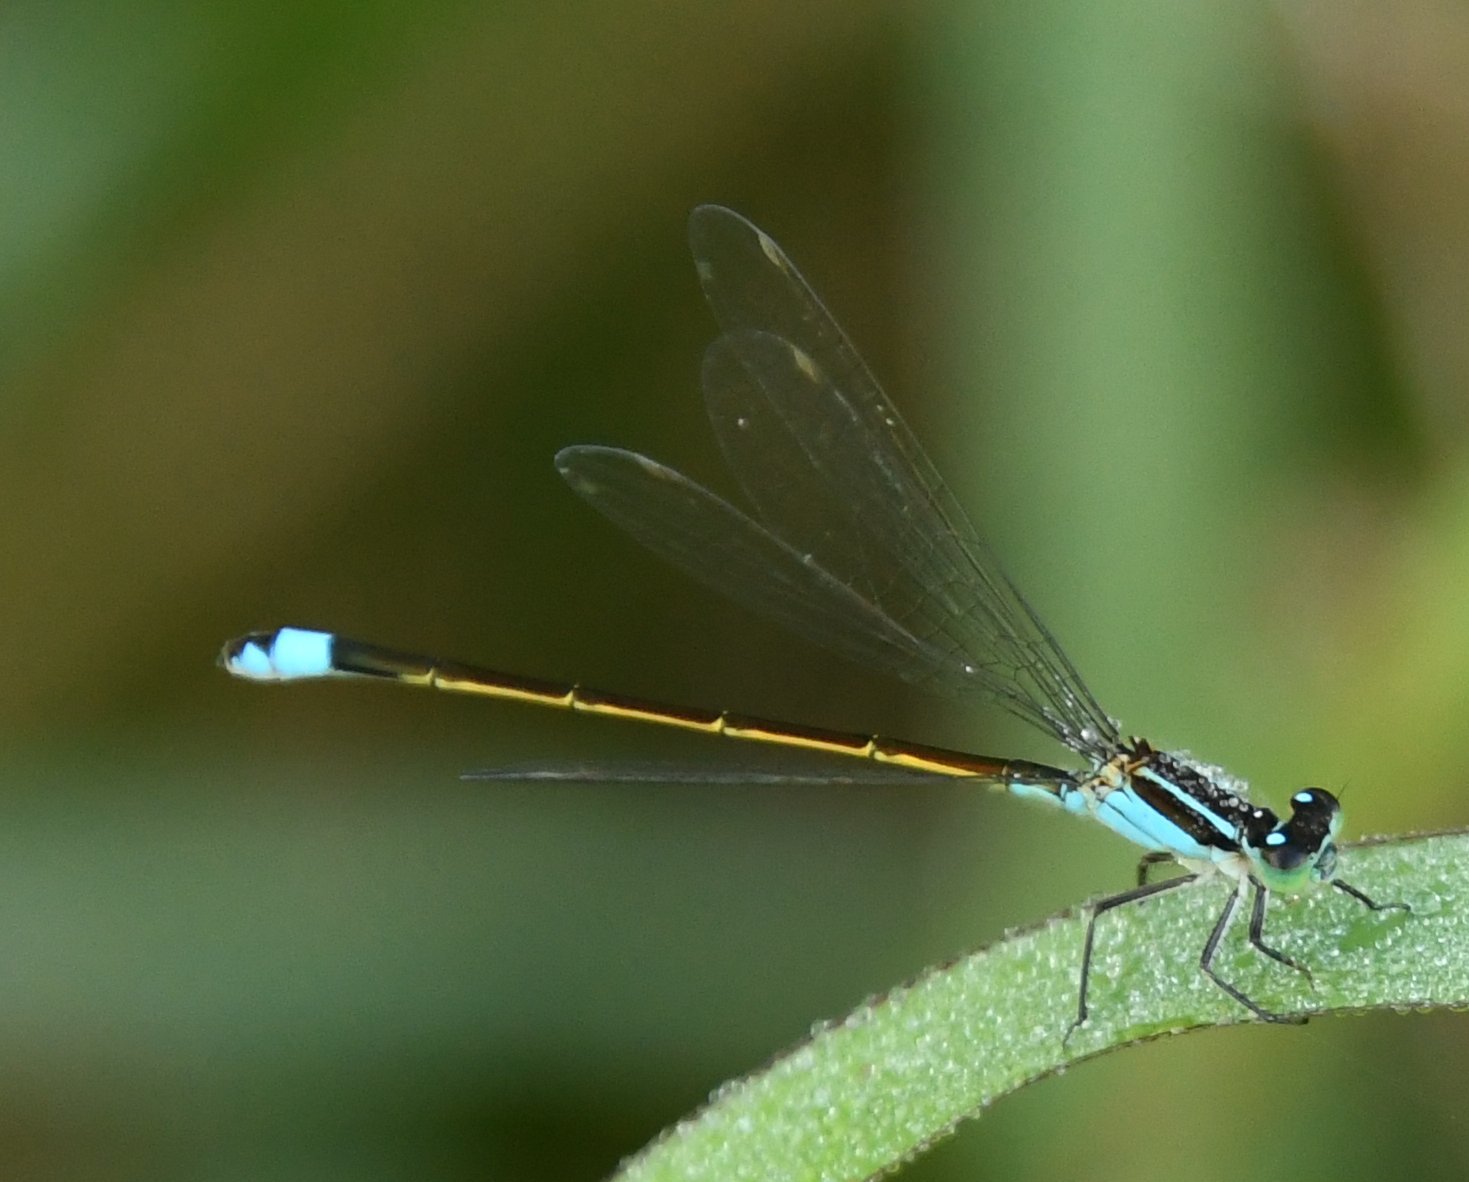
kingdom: Animalia
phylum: Arthropoda
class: Insecta
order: Odonata
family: Coenagrionidae
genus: Ischnura
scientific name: Ischnura ramburii
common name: Rambur's forktail
